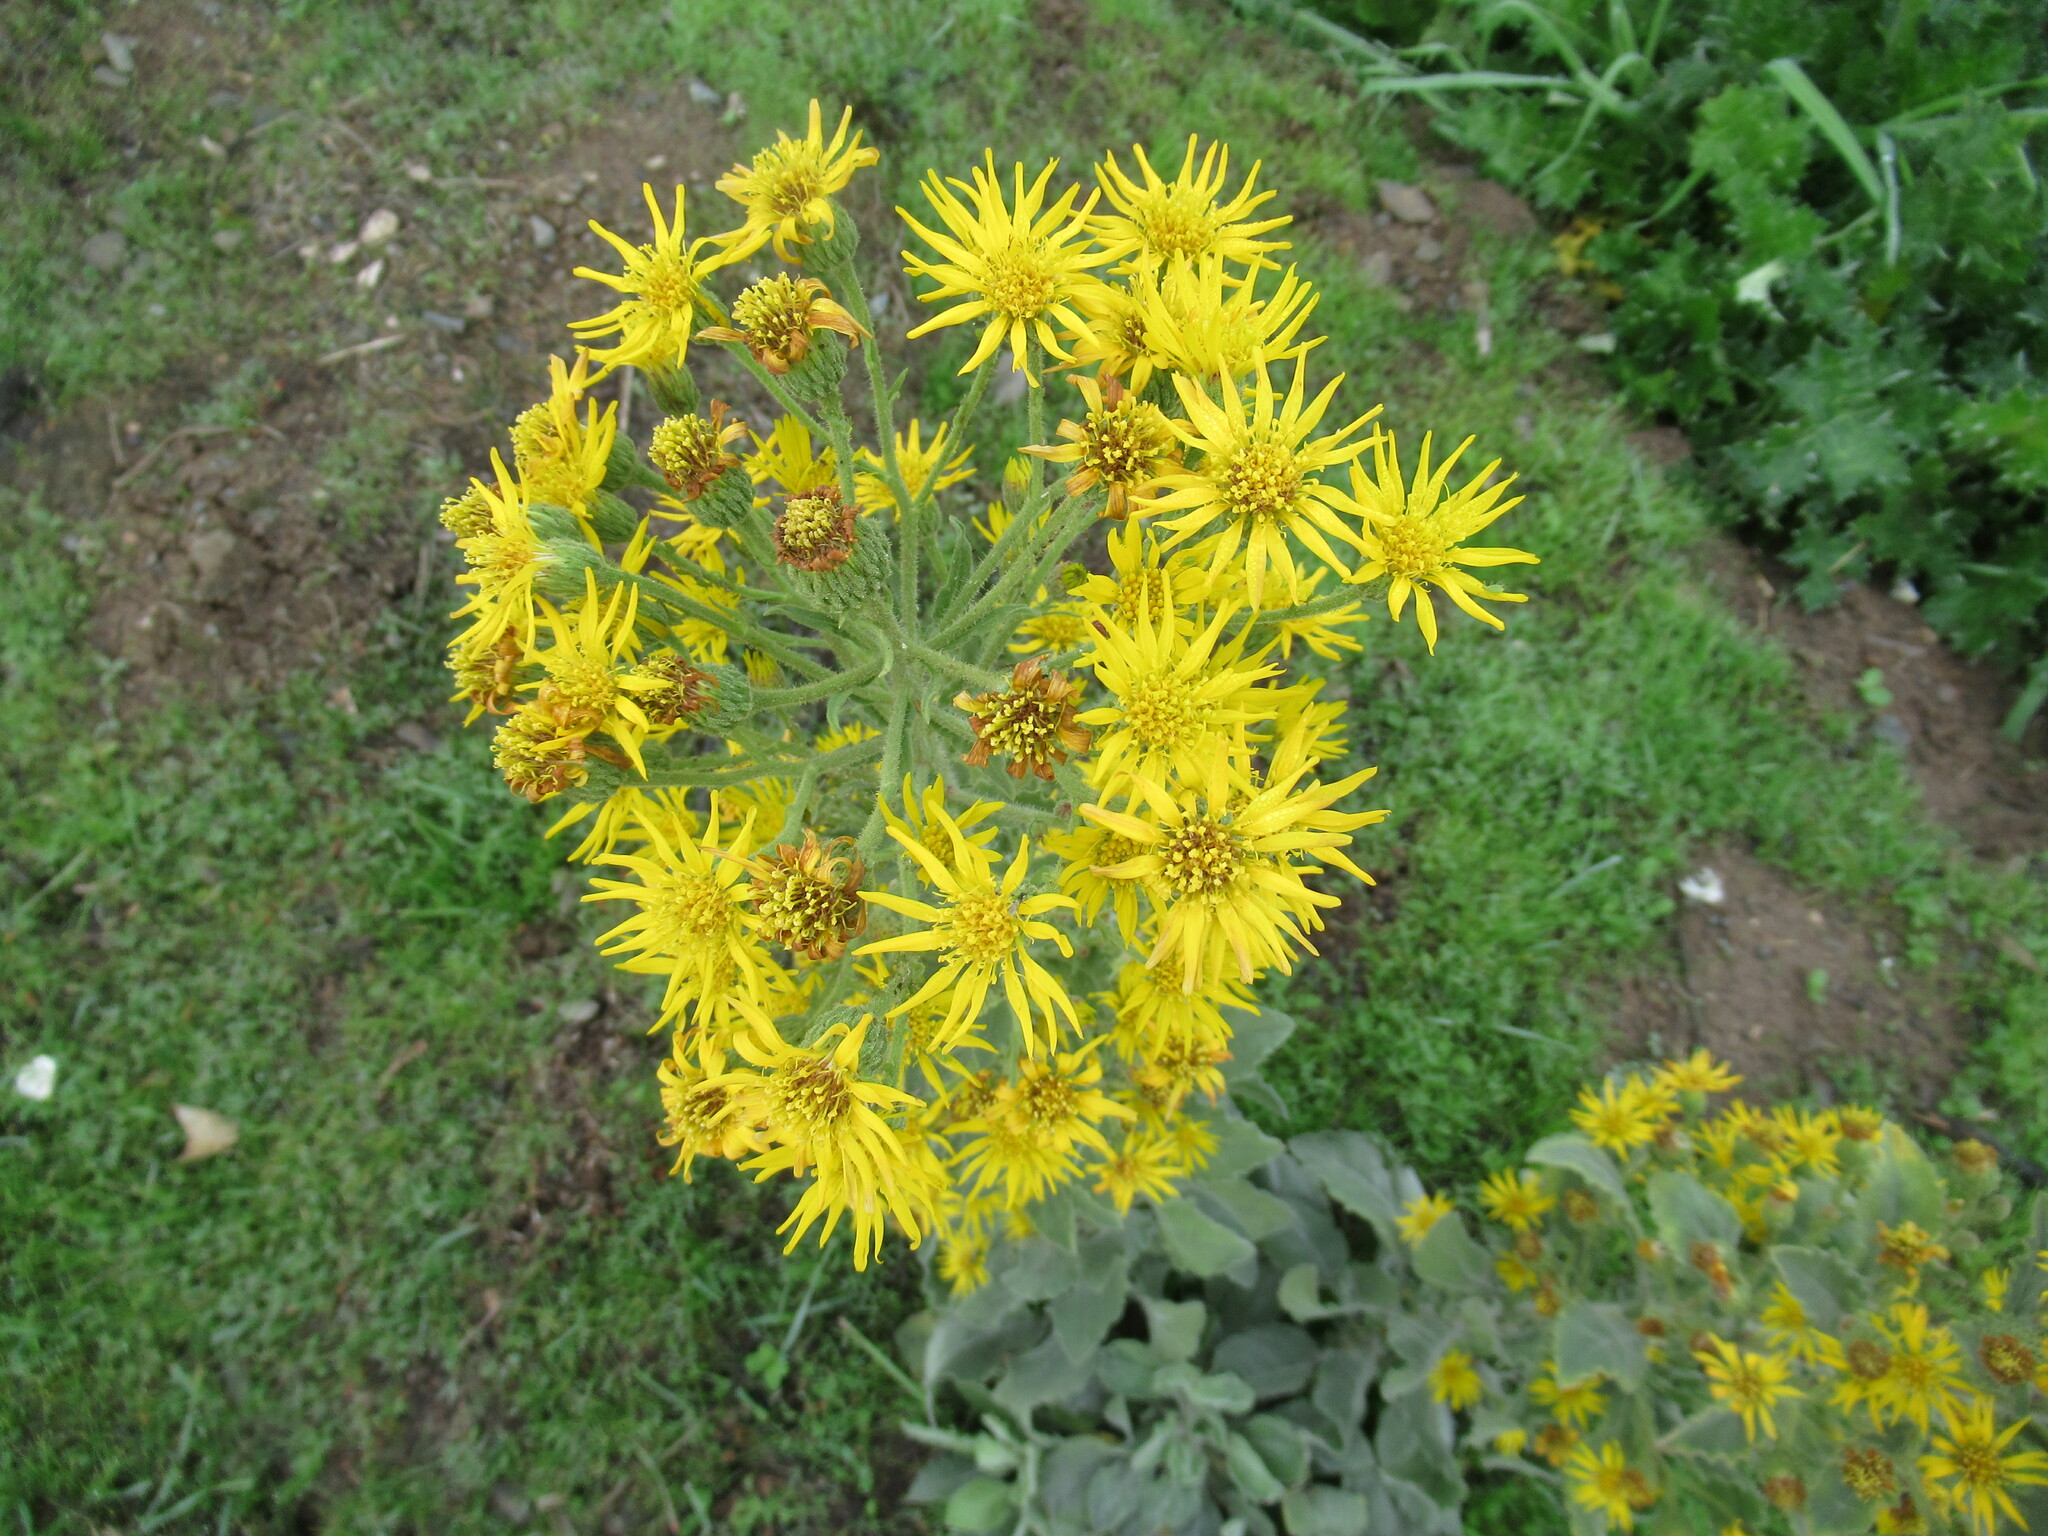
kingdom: Plantae
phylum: Tracheophyta
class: Magnoliopsida
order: Asterales
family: Asteraceae
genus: Heterotheca
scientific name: Heterotheca grandiflora
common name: Telegraphweed
